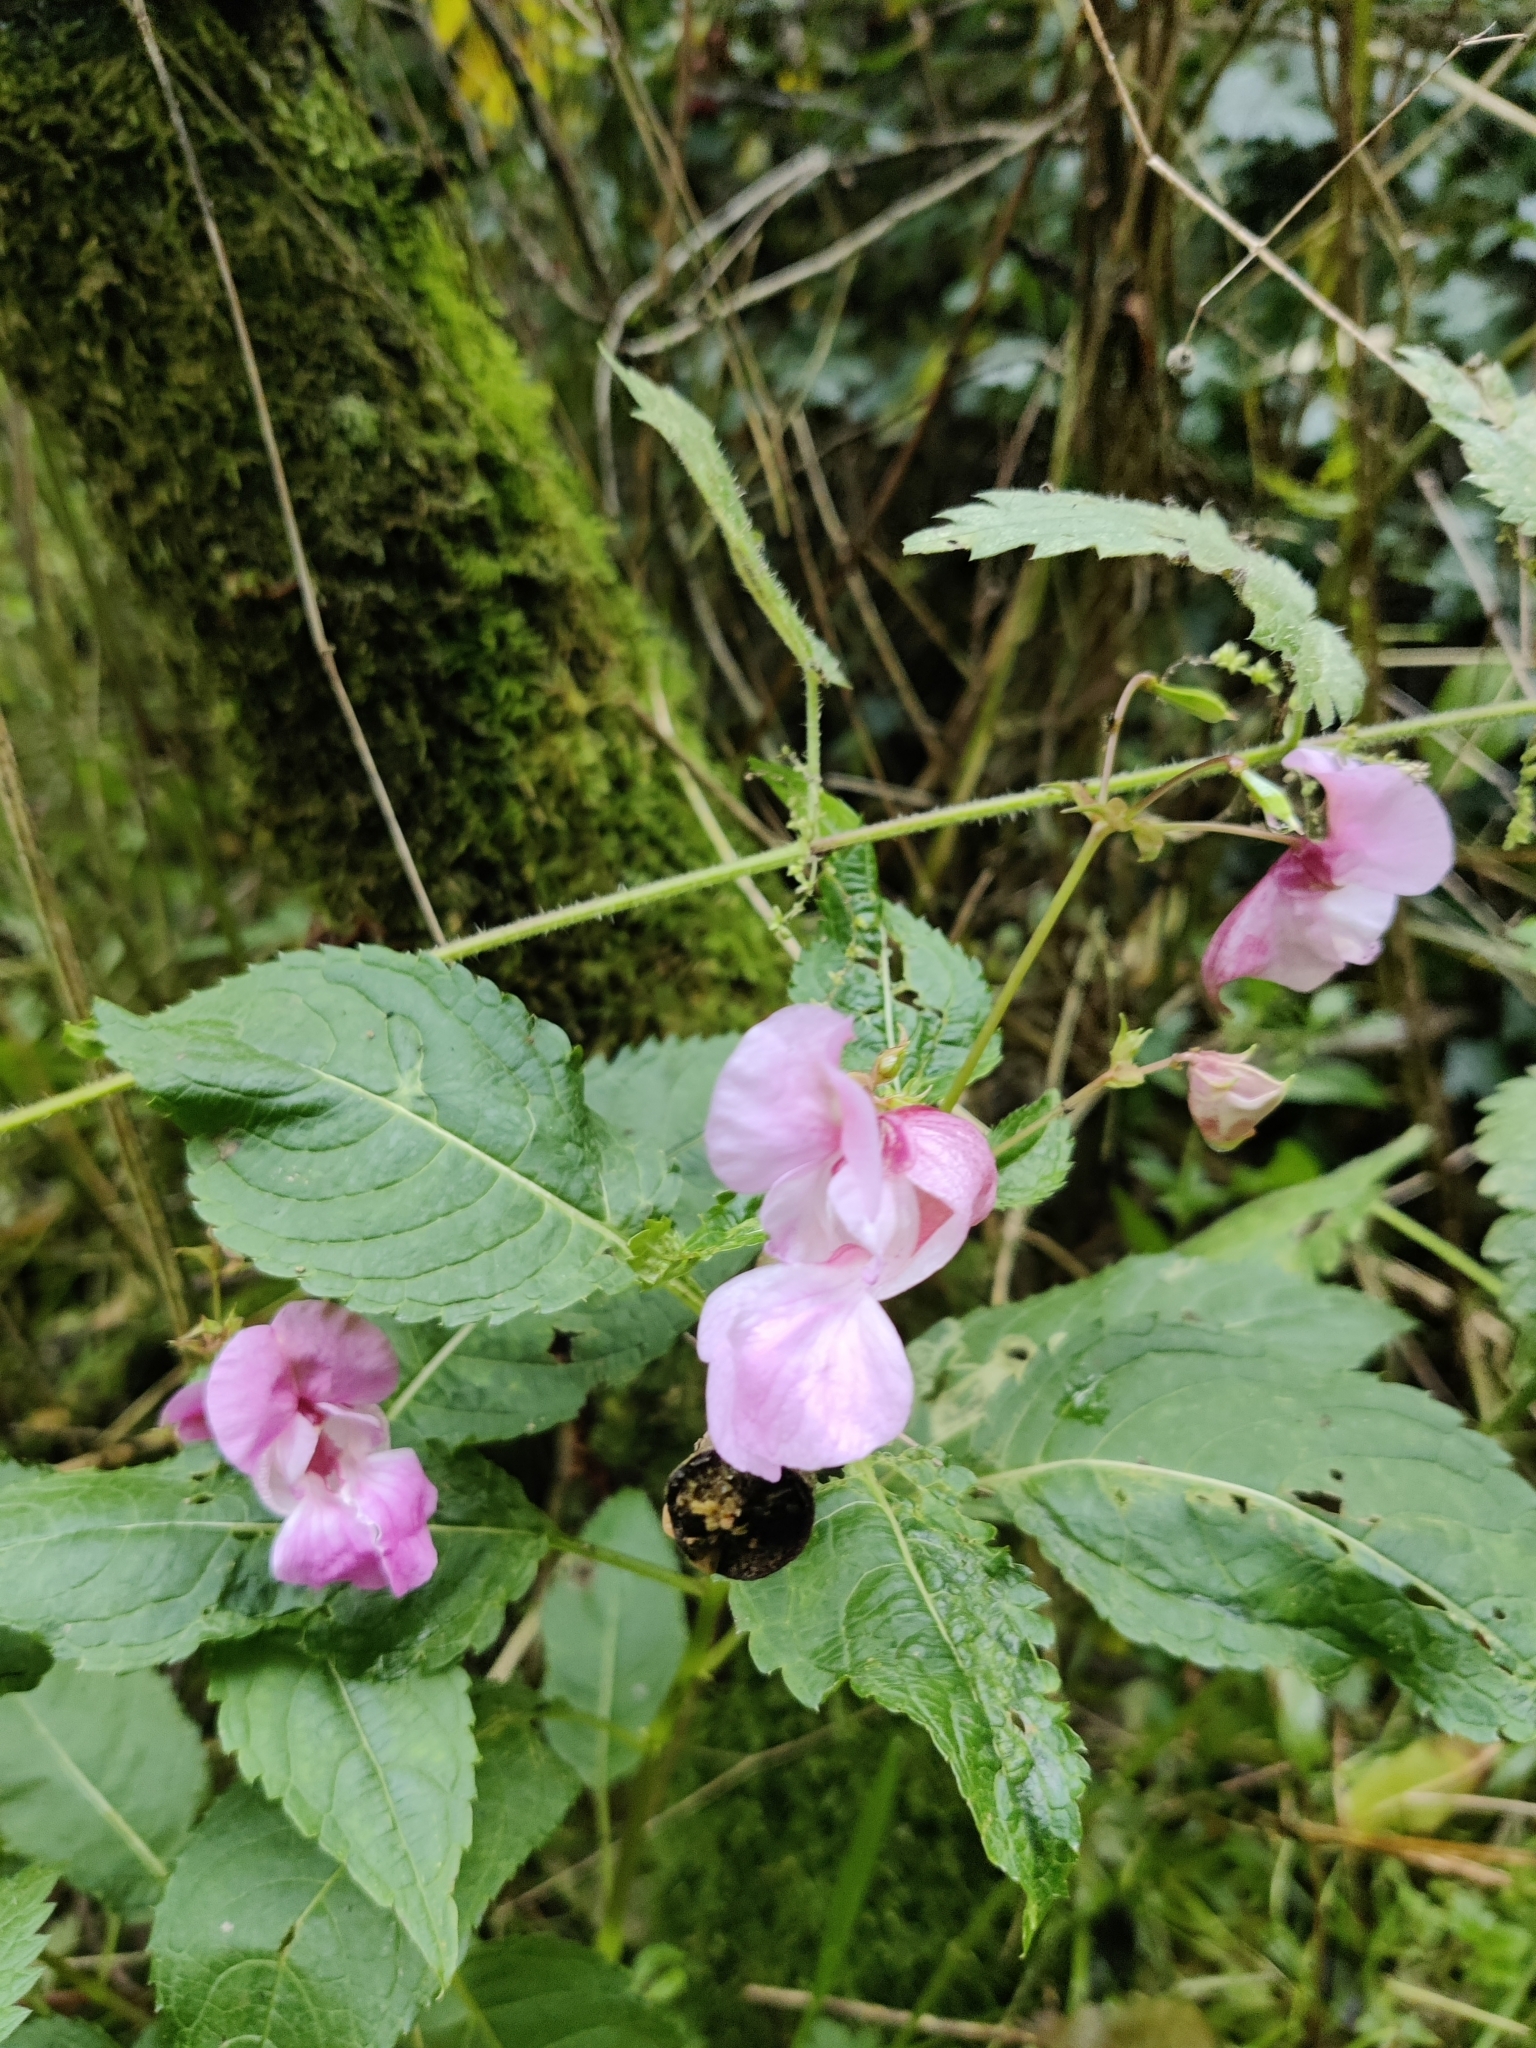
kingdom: Plantae
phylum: Tracheophyta
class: Magnoliopsida
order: Ericales
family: Balsaminaceae
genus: Impatiens
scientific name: Impatiens glandulifera
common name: Himalayan balsam
